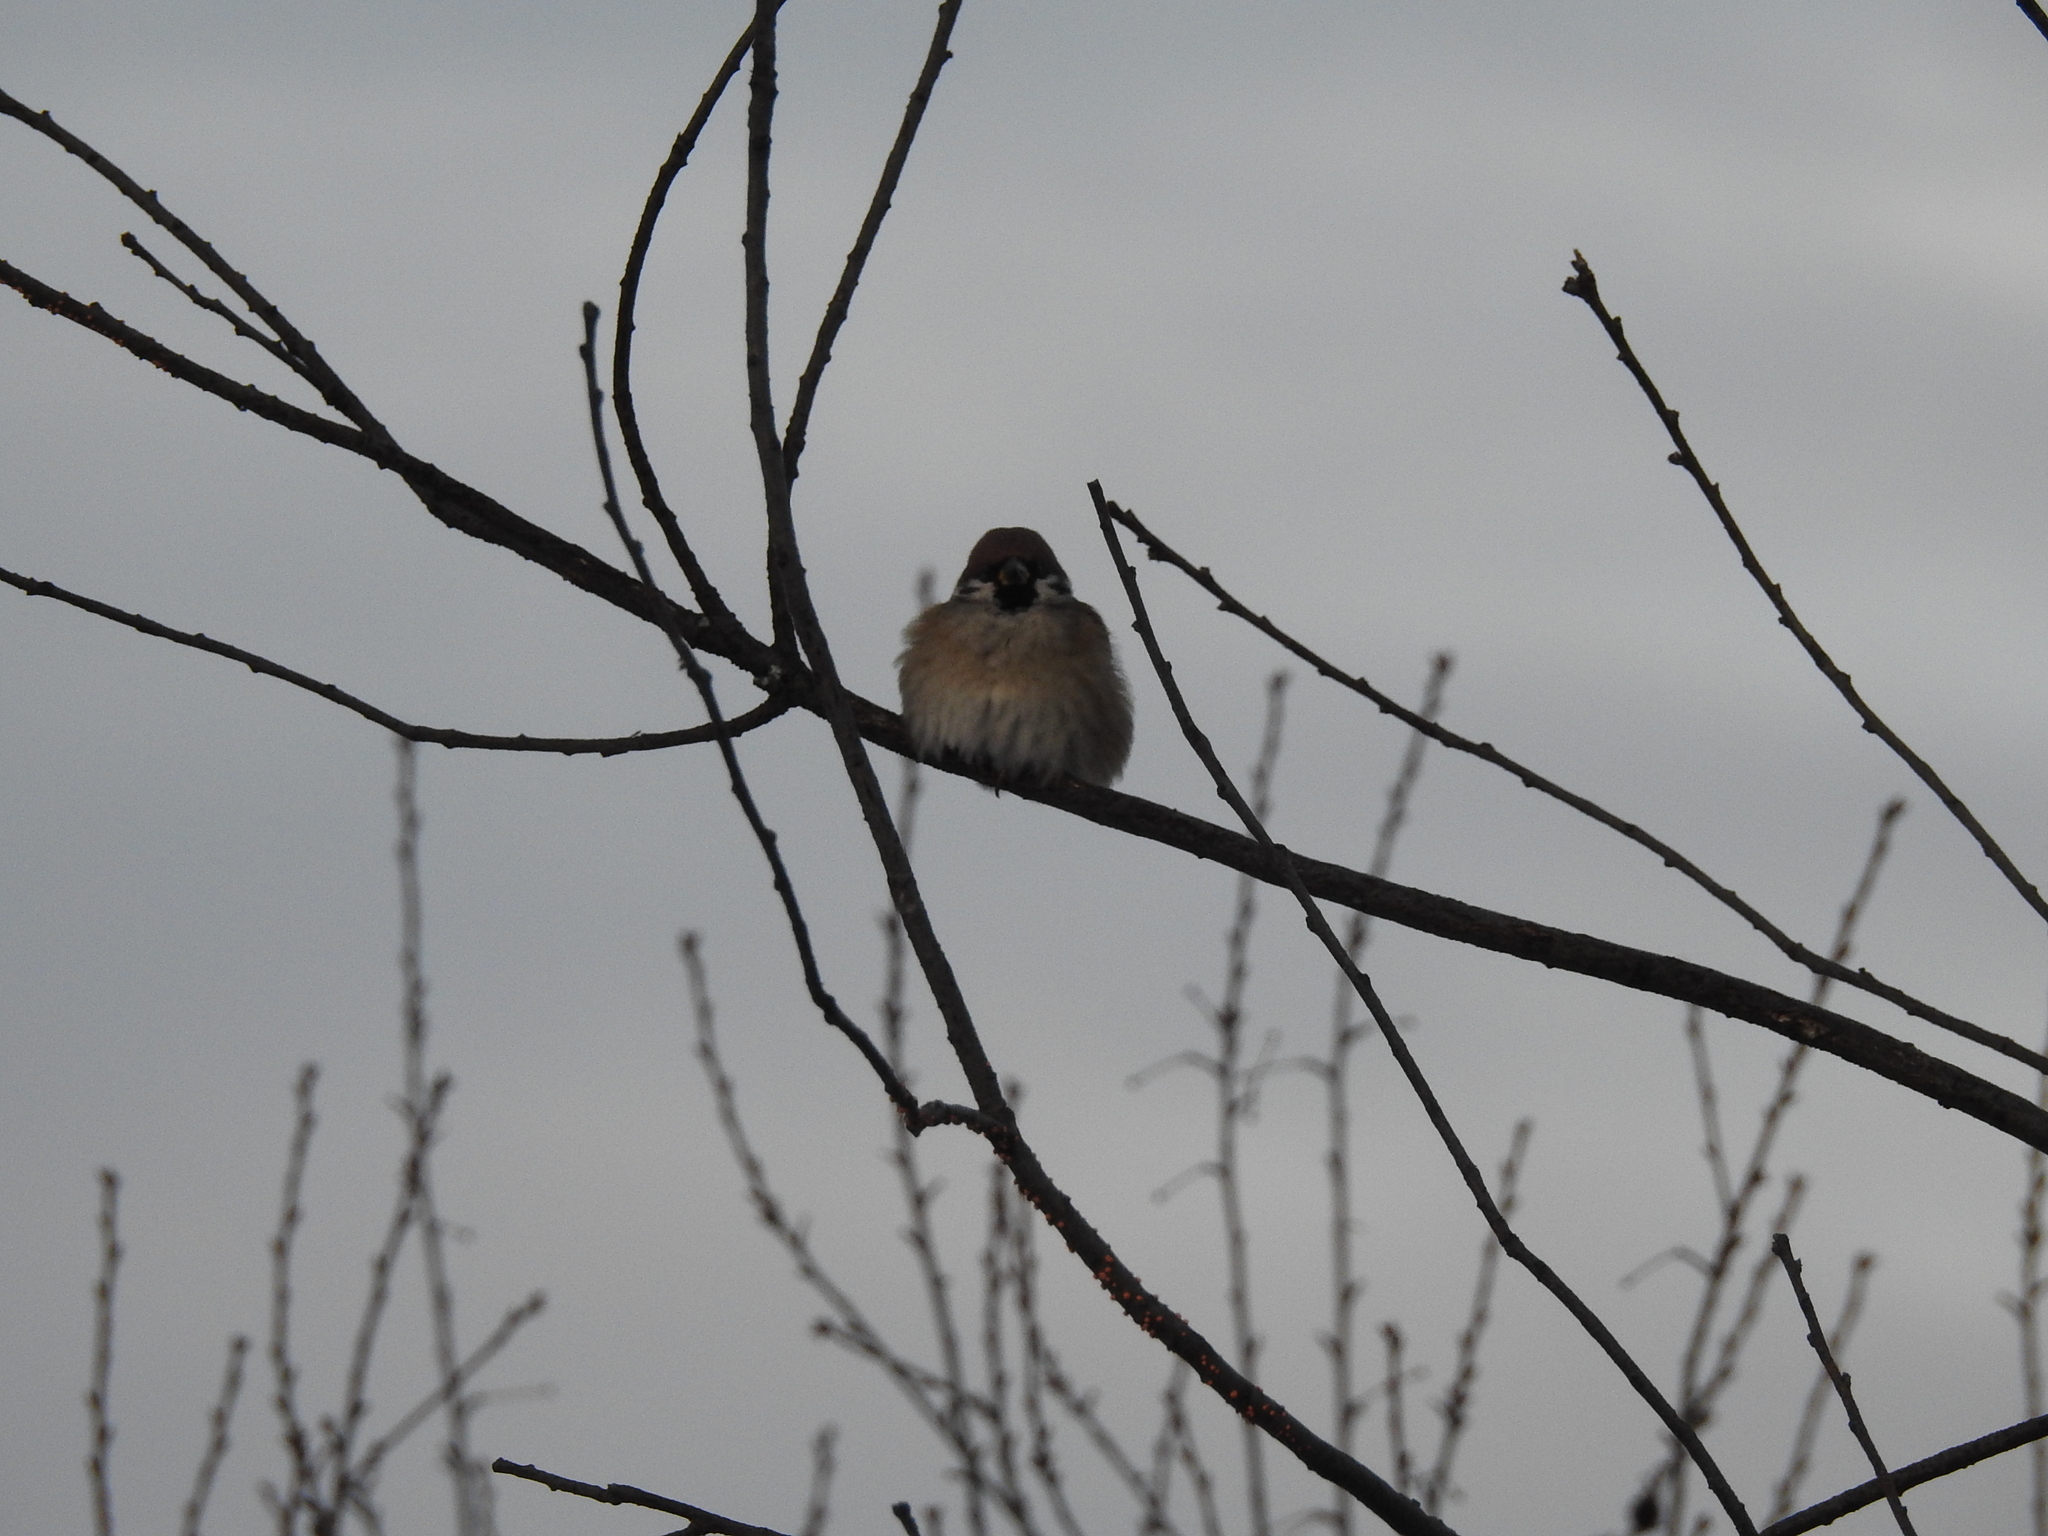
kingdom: Animalia
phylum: Chordata
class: Aves
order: Passeriformes
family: Passeridae
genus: Passer
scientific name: Passer montanus
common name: Eurasian tree sparrow
